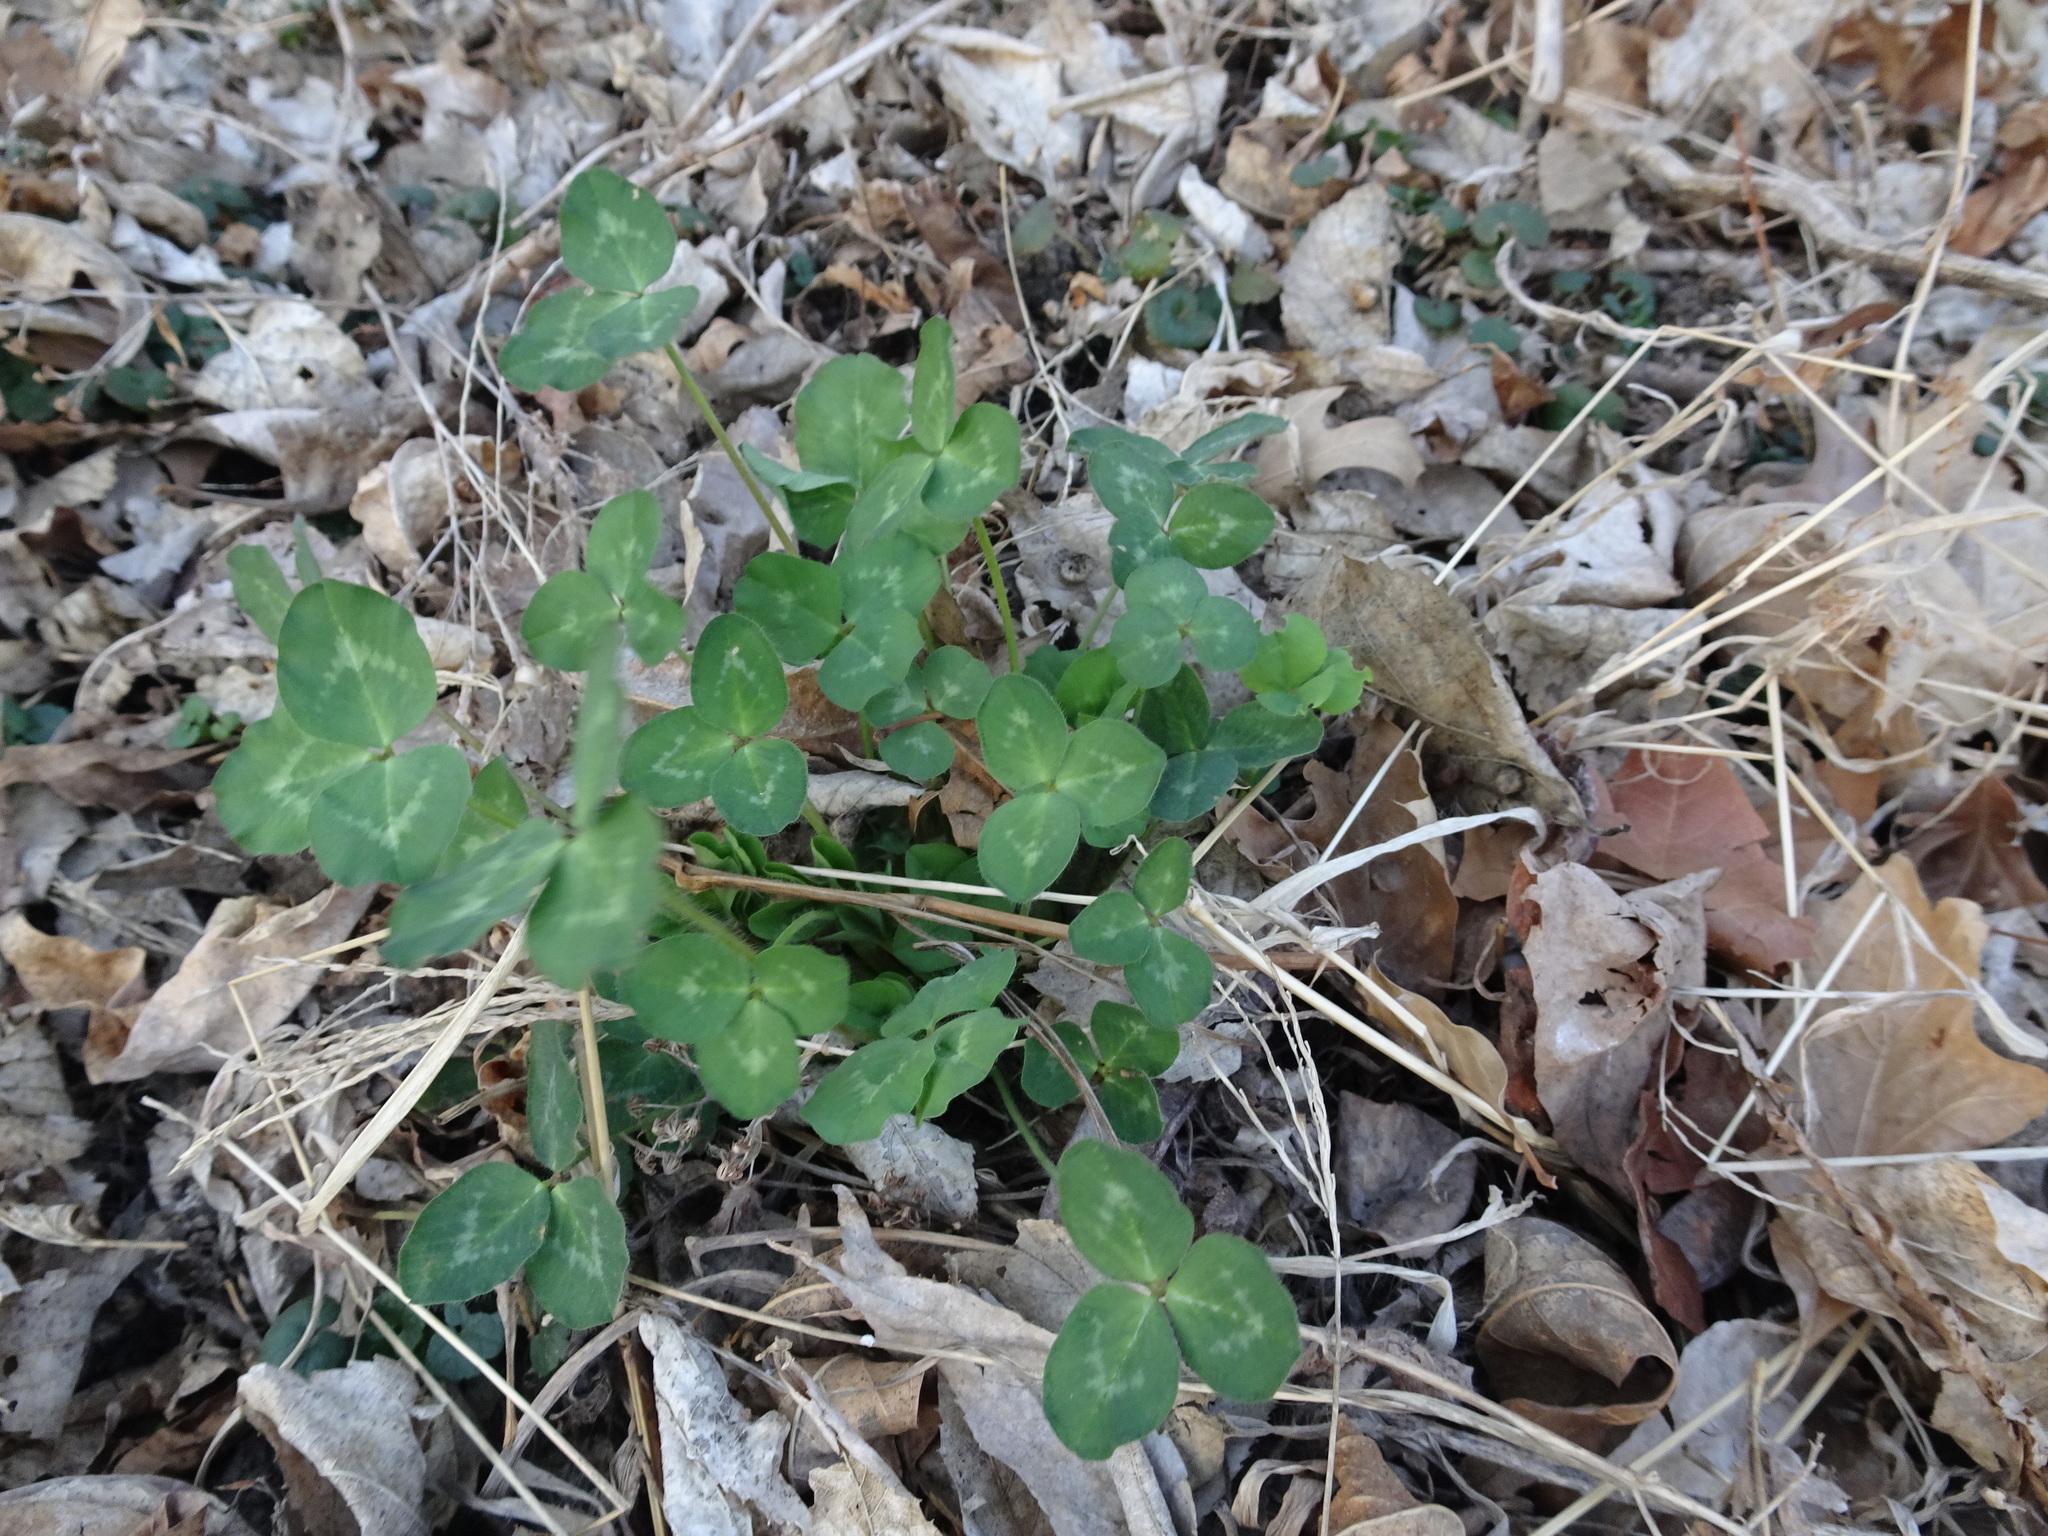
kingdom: Plantae
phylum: Tracheophyta
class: Magnoliopsida
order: Fabales
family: Fabaceae
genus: Trifolium
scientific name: Trifolium repens
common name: White clover
